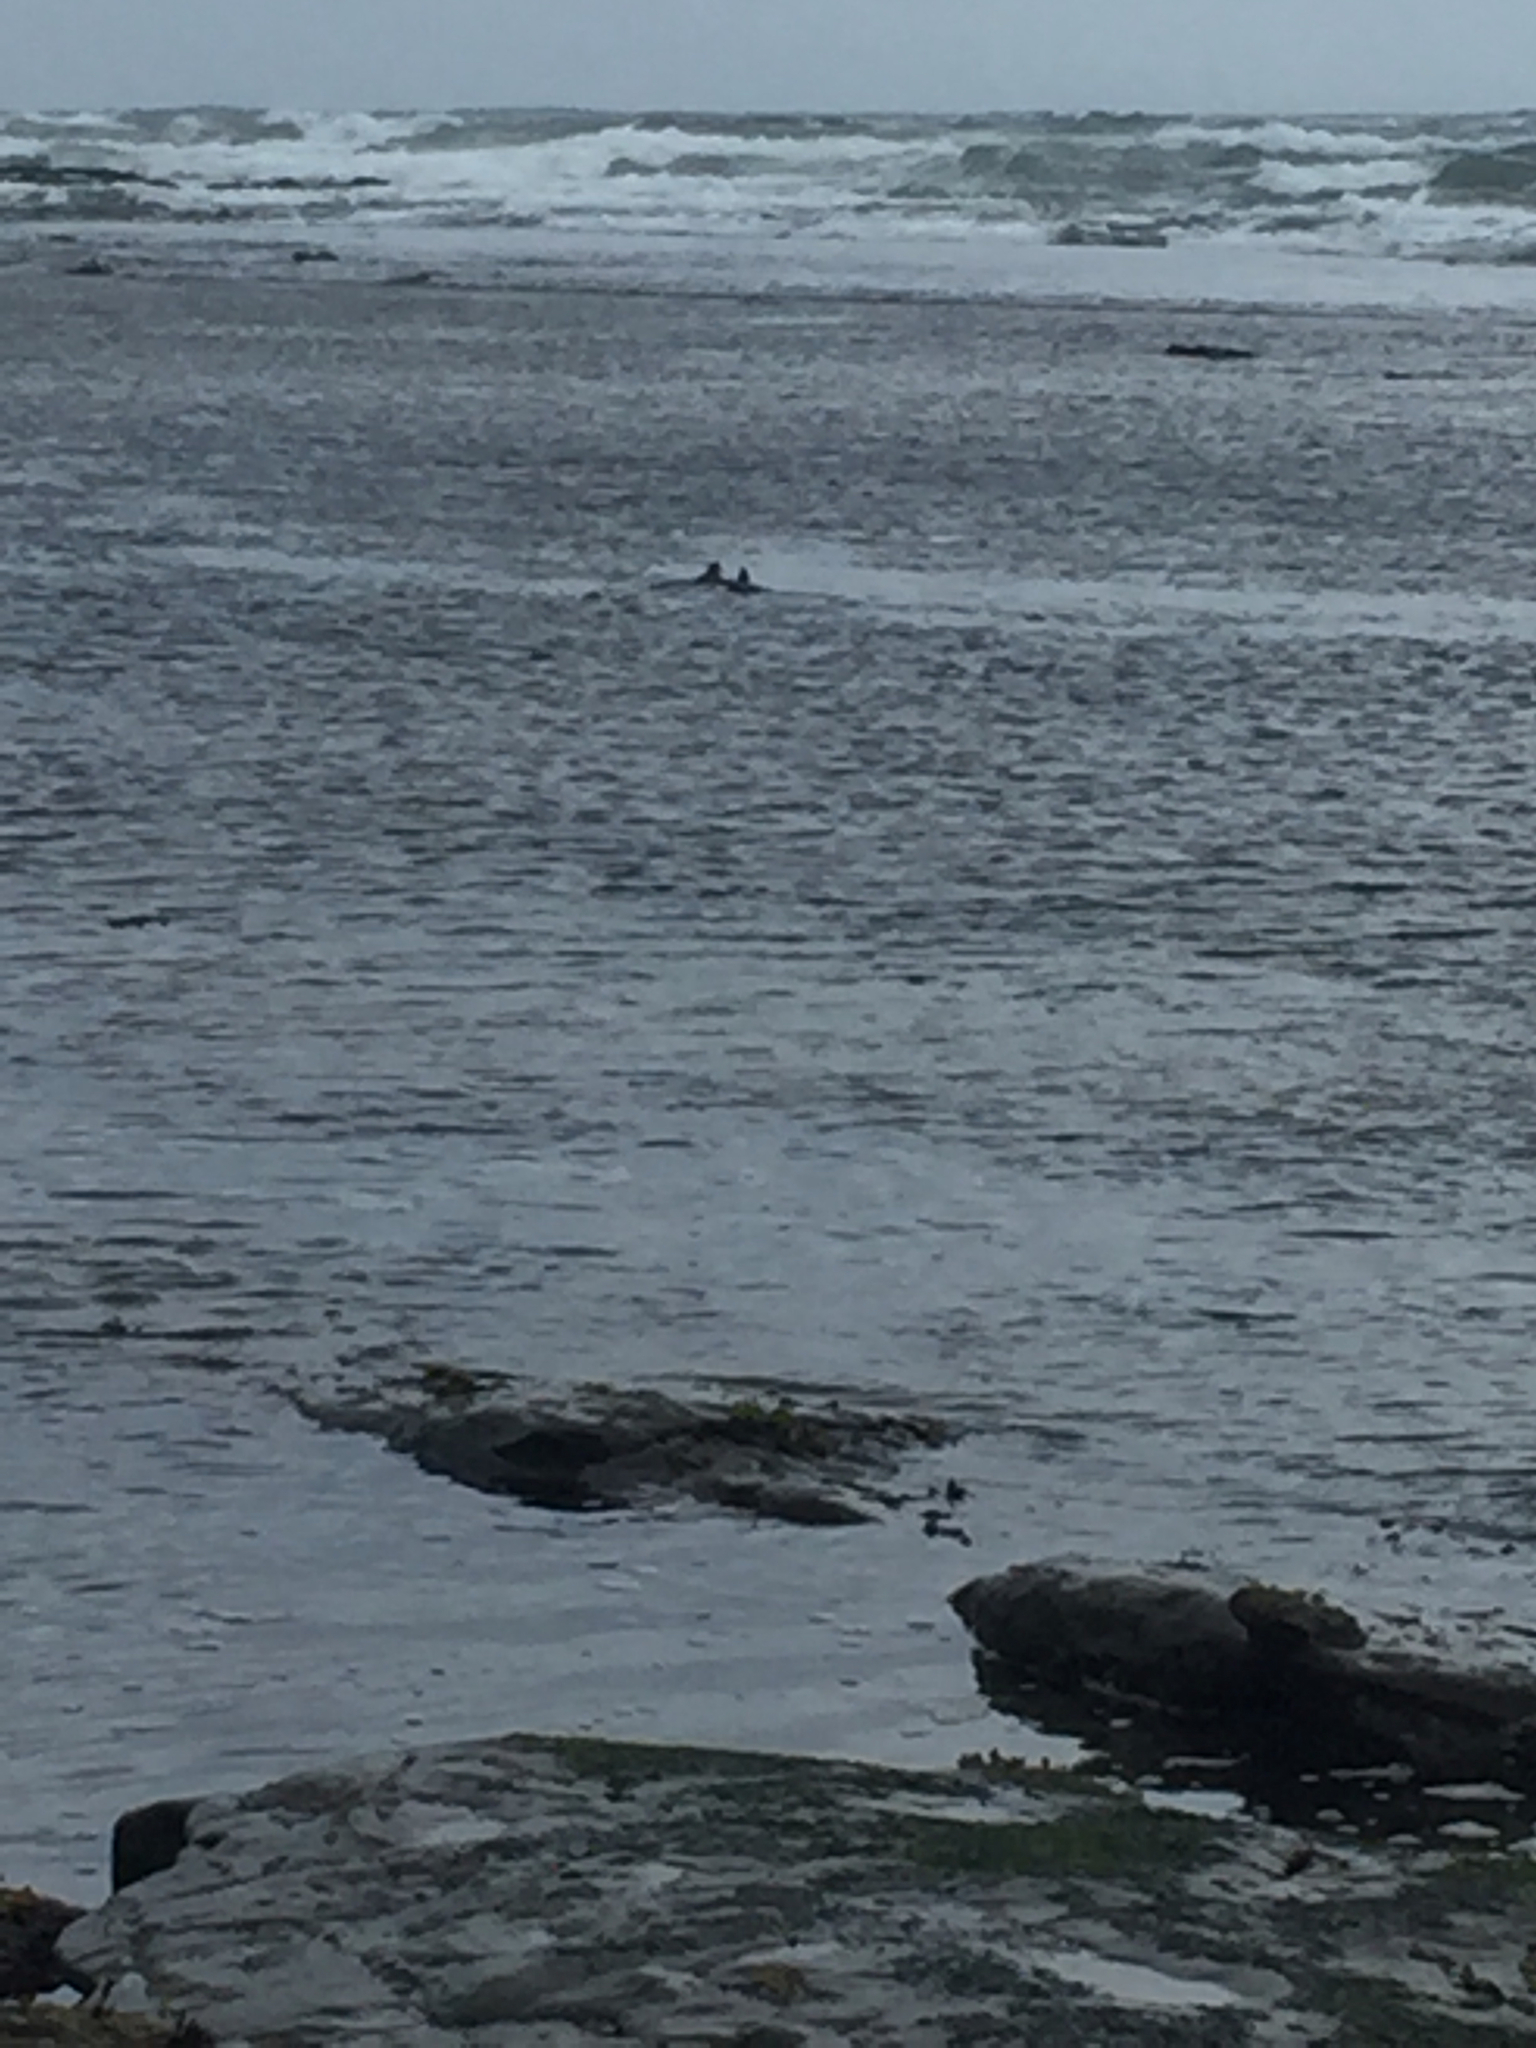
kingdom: Animalia
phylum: Chordata
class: Aves
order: Anseriformes
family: Anatidae
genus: Histrionicus
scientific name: Histrionicus histrionicus
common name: Harlequin duck
